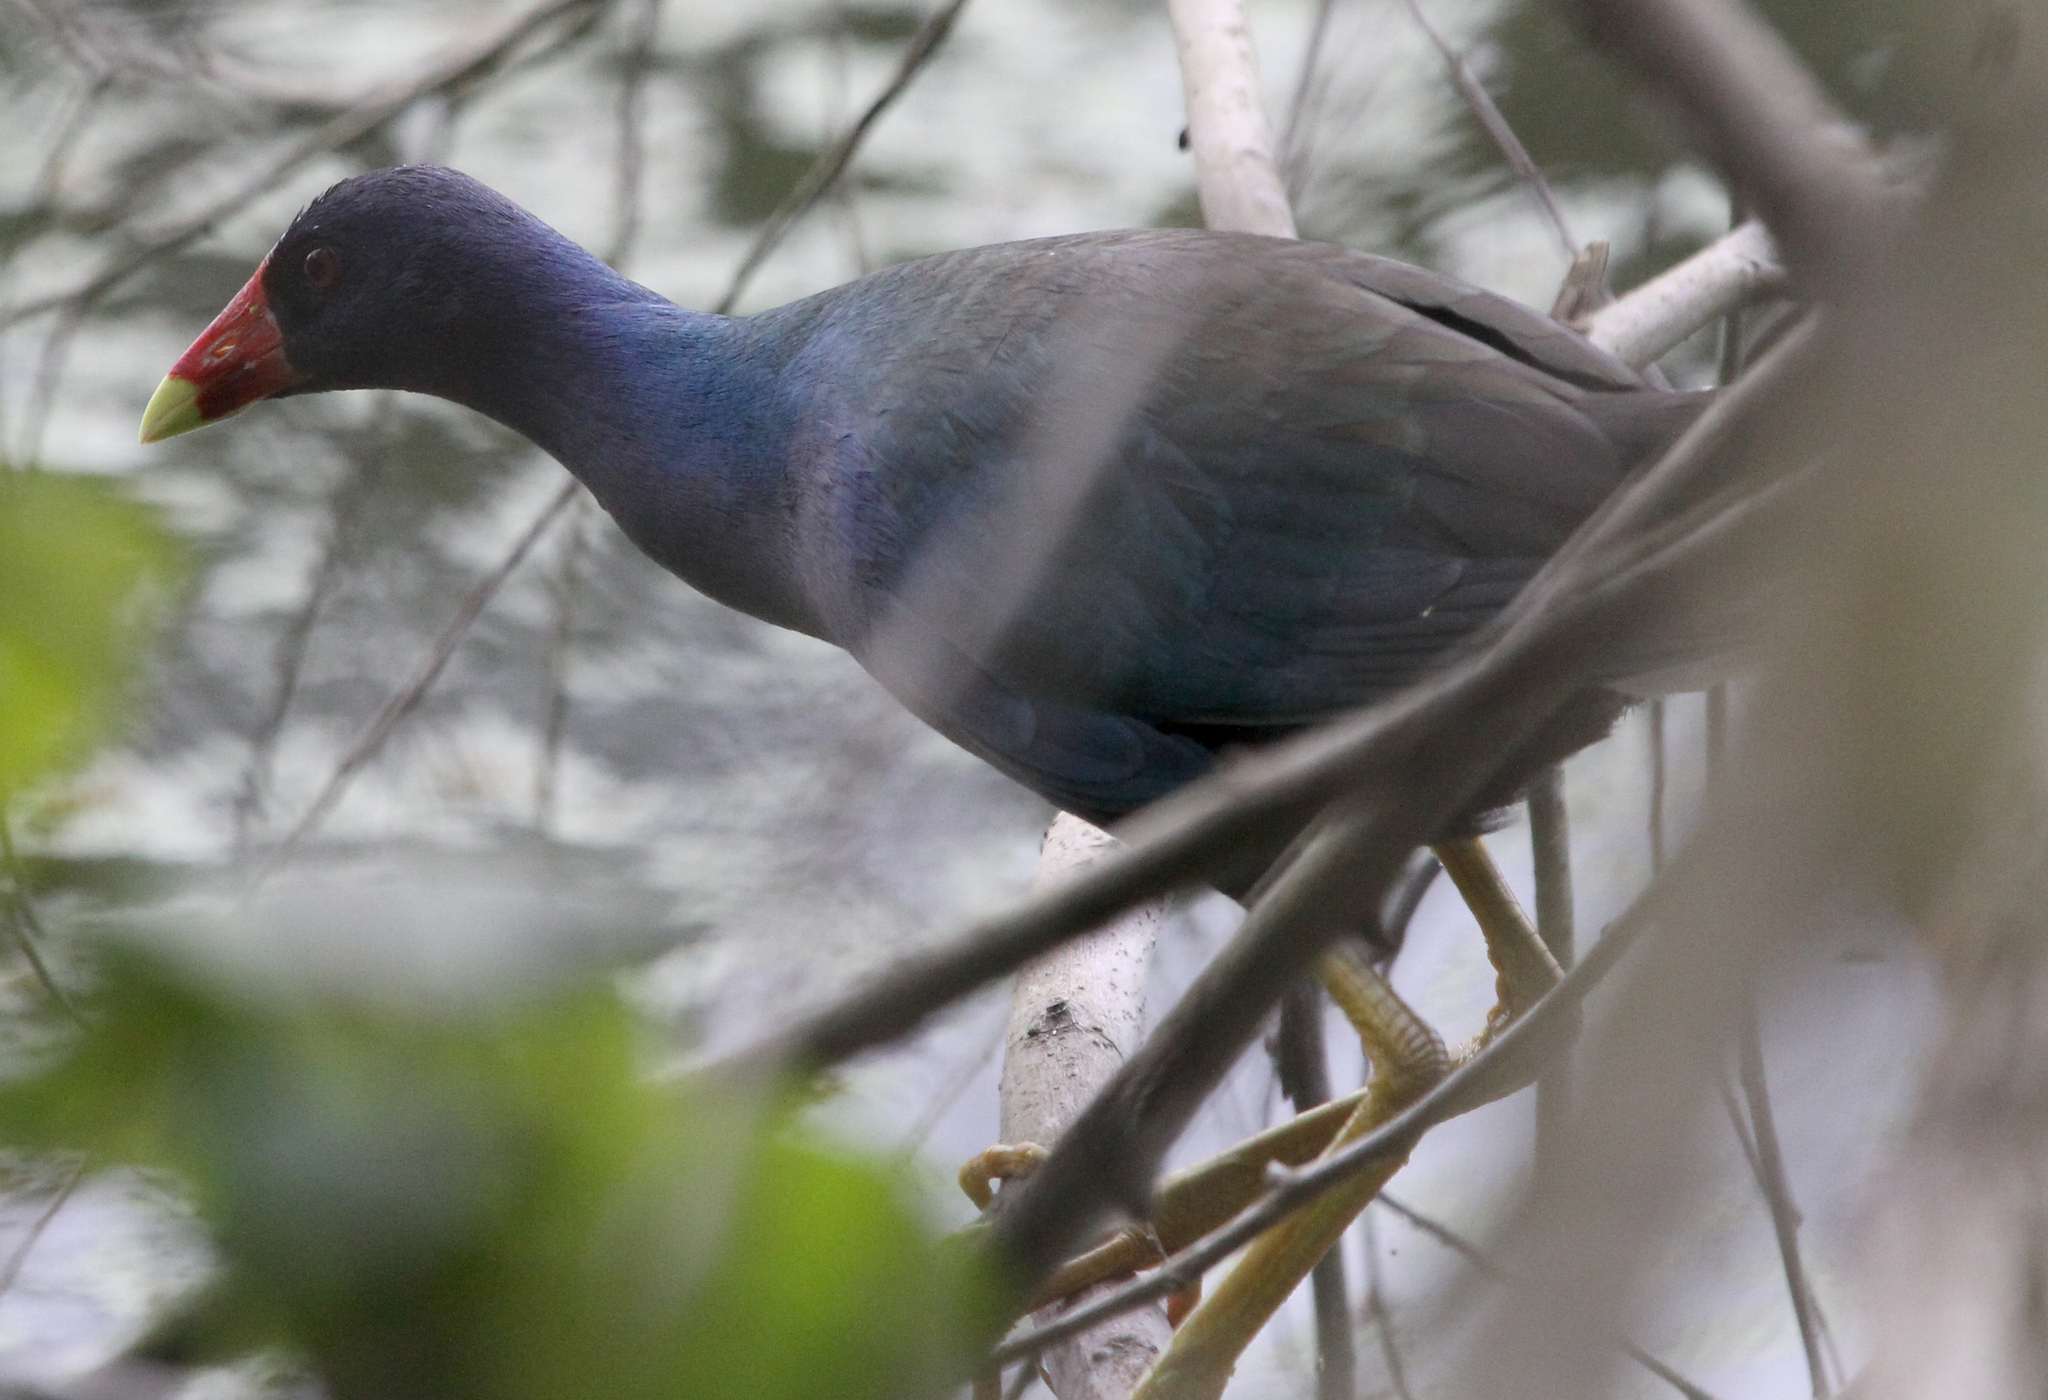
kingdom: Animalia
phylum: Chordata
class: Aves
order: Gruiformes
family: Rallidae
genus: Porphyrio
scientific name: Porphyrio martinica
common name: Purple gallinule
